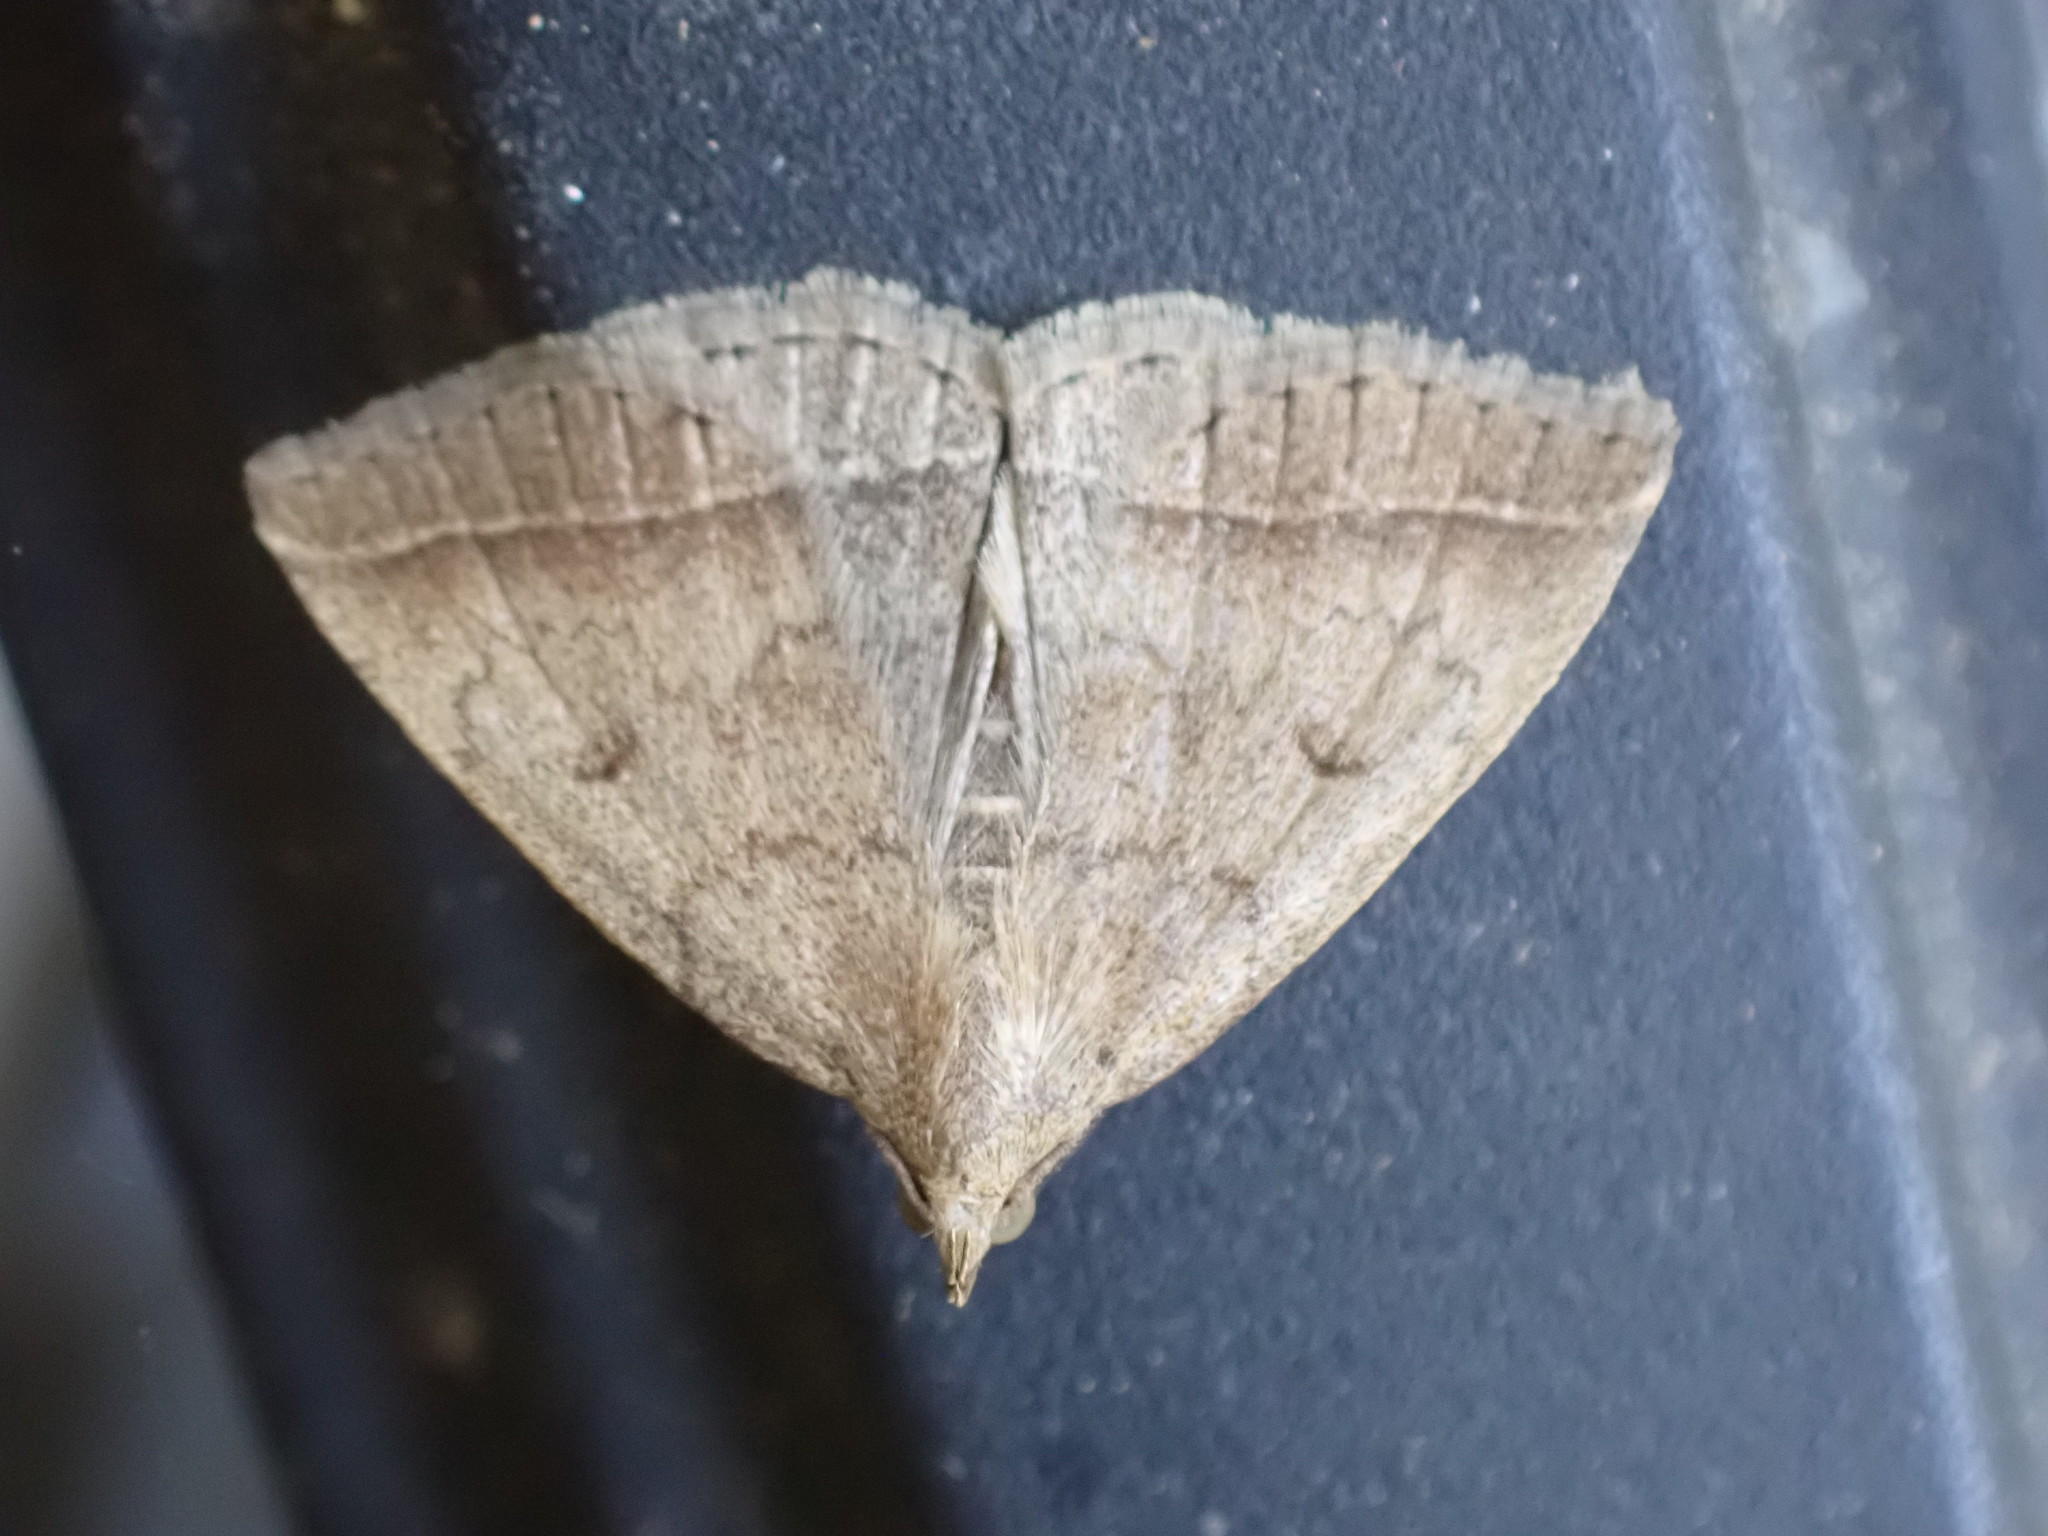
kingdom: Animalia
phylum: Arthropoda
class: Insecta
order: Lepidoptera
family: Erebidae
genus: Zanclognatha
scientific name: Zanclognatha jacchusalis
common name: Yellowish zanclognatha
